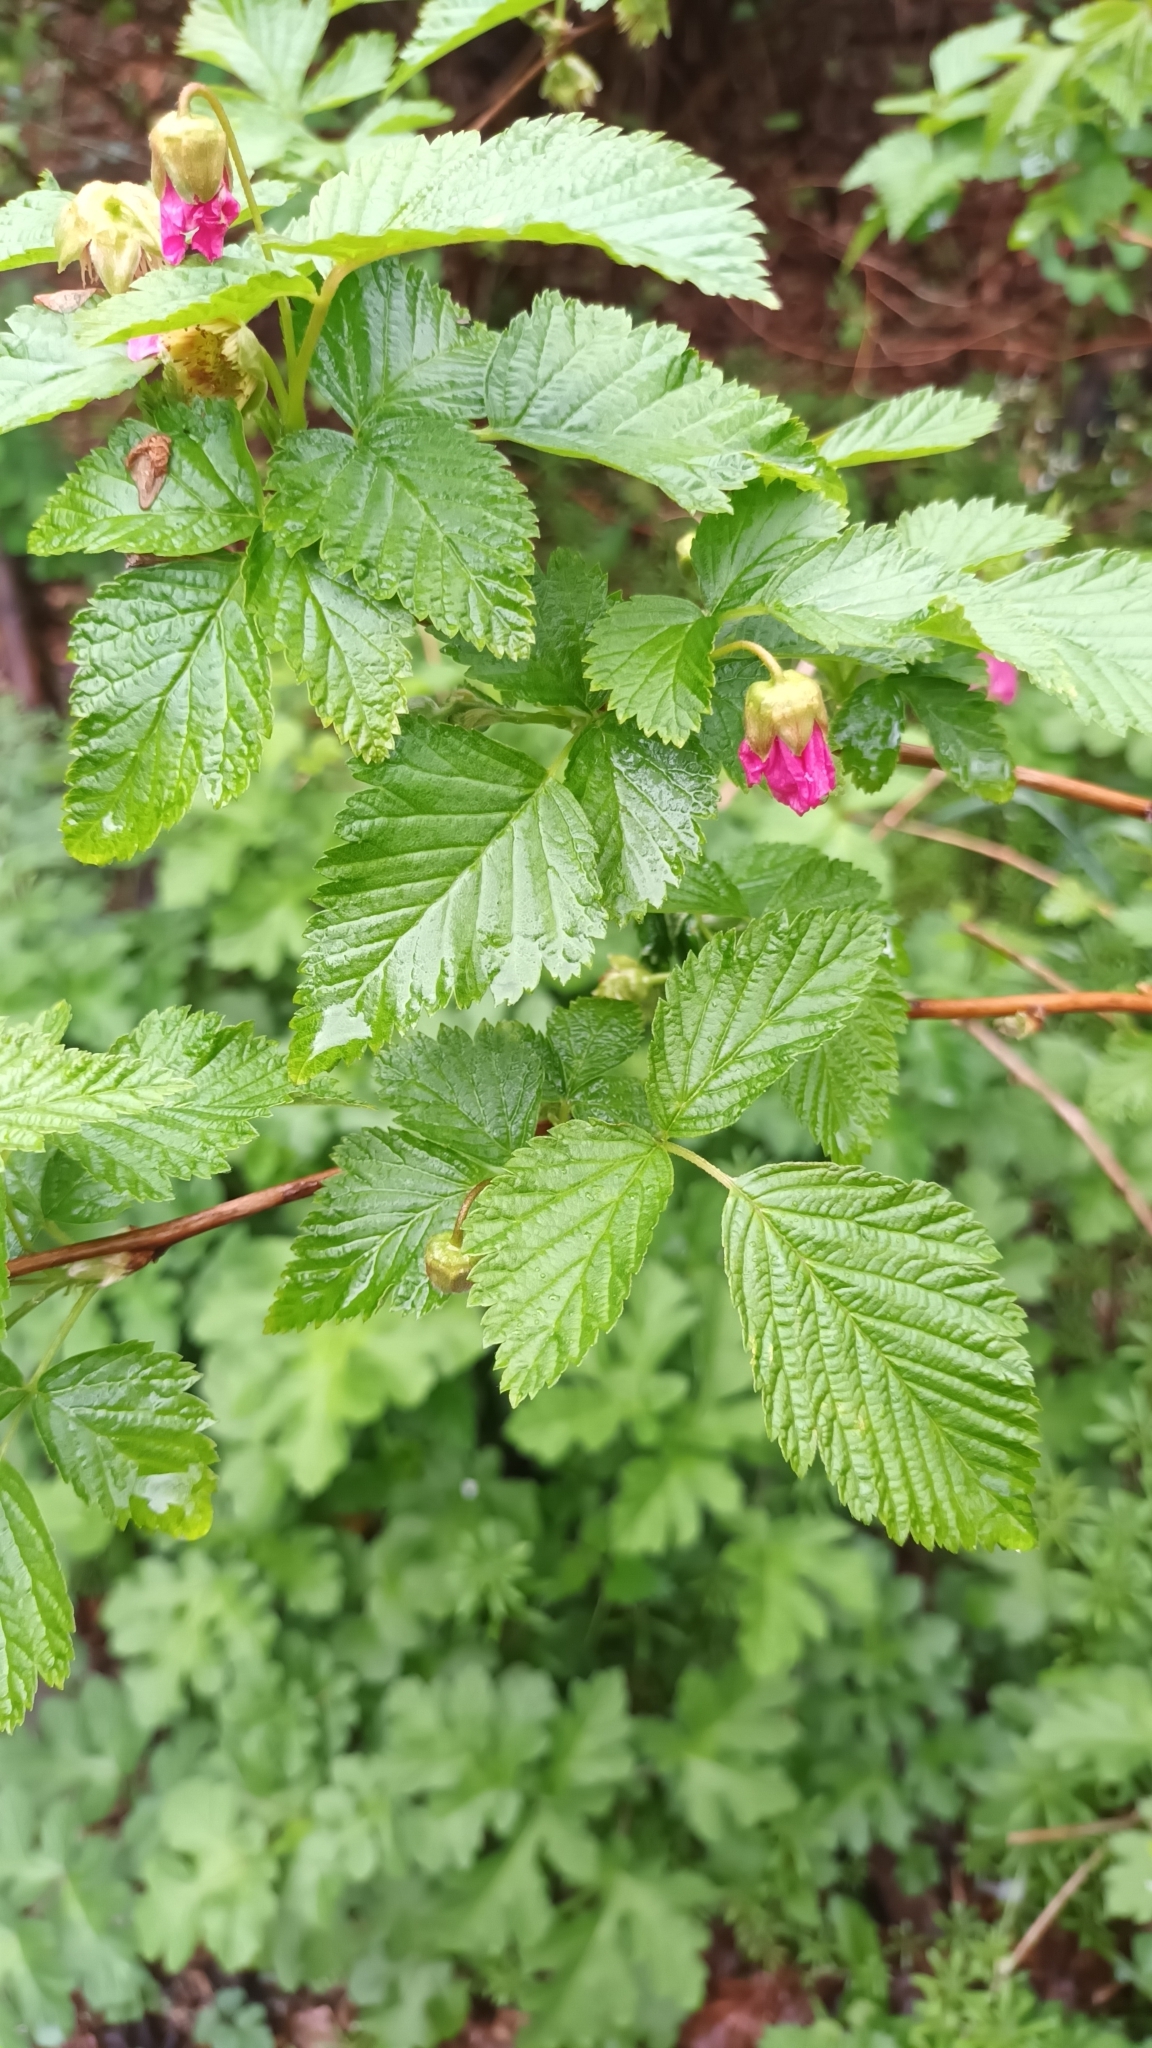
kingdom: Plantae
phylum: Tracheophyta
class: Magnoliopsida
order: Rosales
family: Rosaceae
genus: Rubus
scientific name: Rubus spectabilis
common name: Salmonberry
